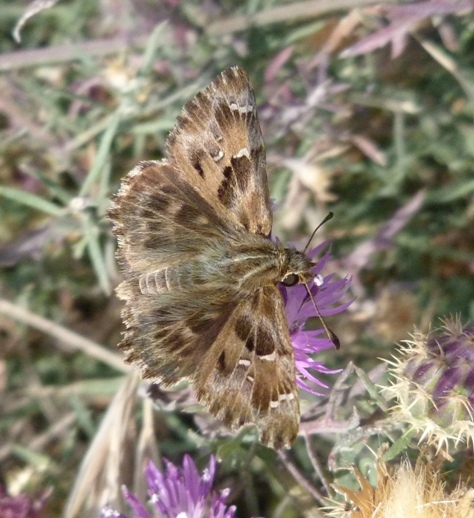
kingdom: Animalia
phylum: Arthropoda
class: Insecta
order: Lepidoptera
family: Hesperiidae
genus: Carcharodus
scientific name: Carcharodus alceae
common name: Mallow skipper
